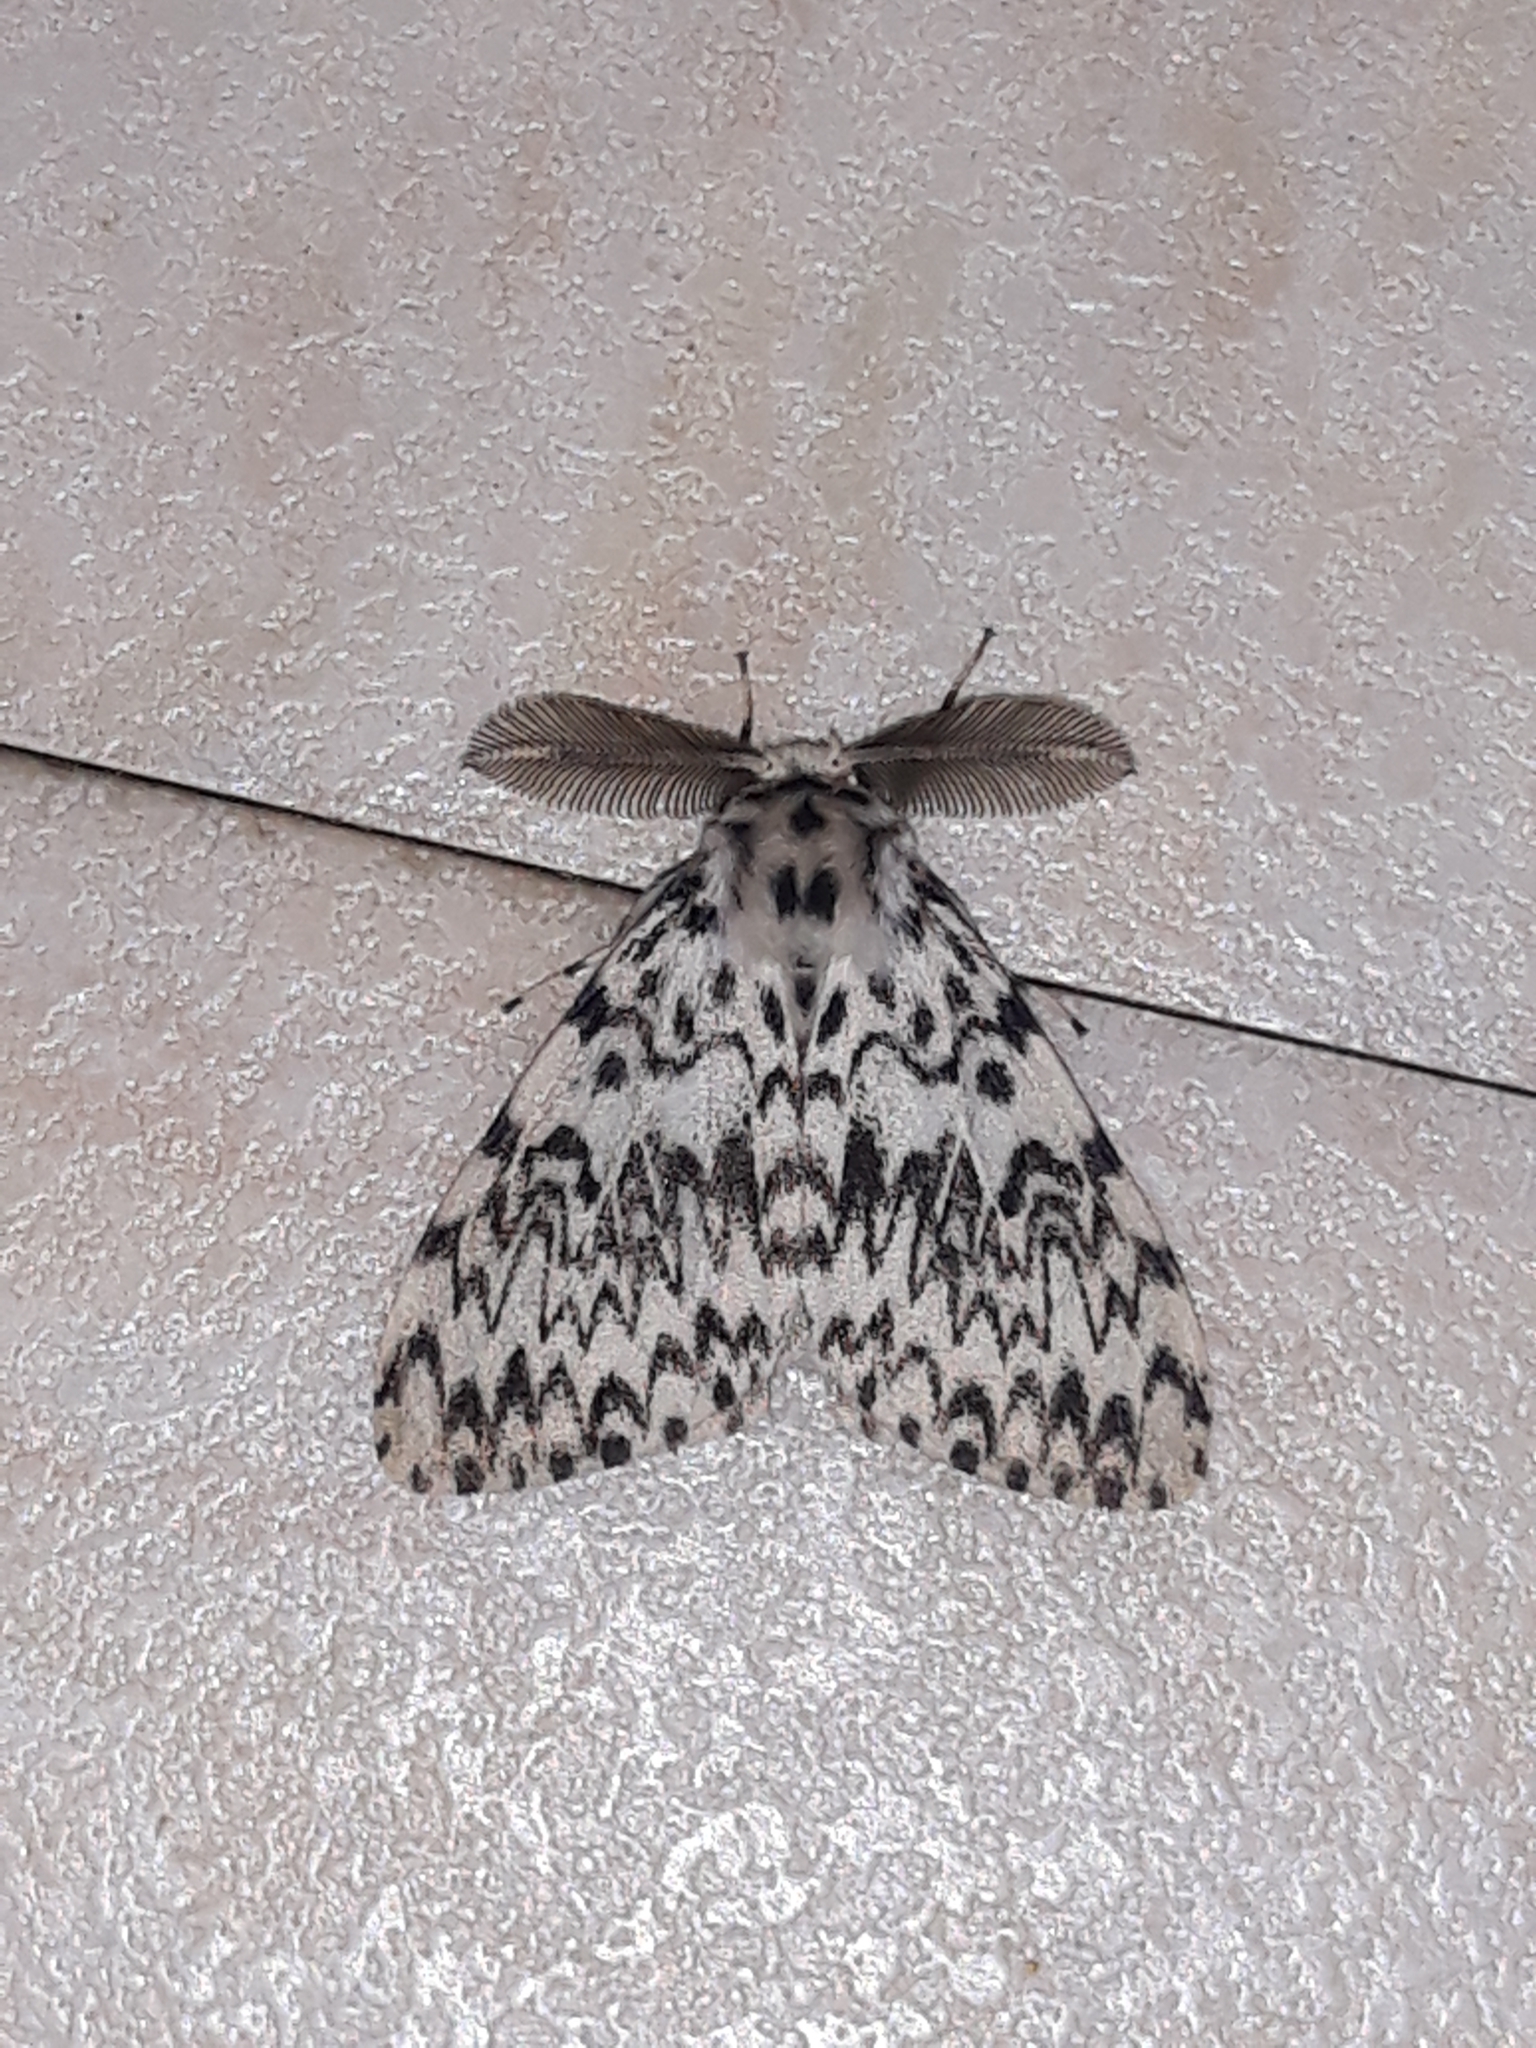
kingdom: Animalia
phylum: Arthropoda
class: Insecta
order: Lepidoptera
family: Erebidae
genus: Lymantria
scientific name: Lymantria monacha
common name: Black arches
